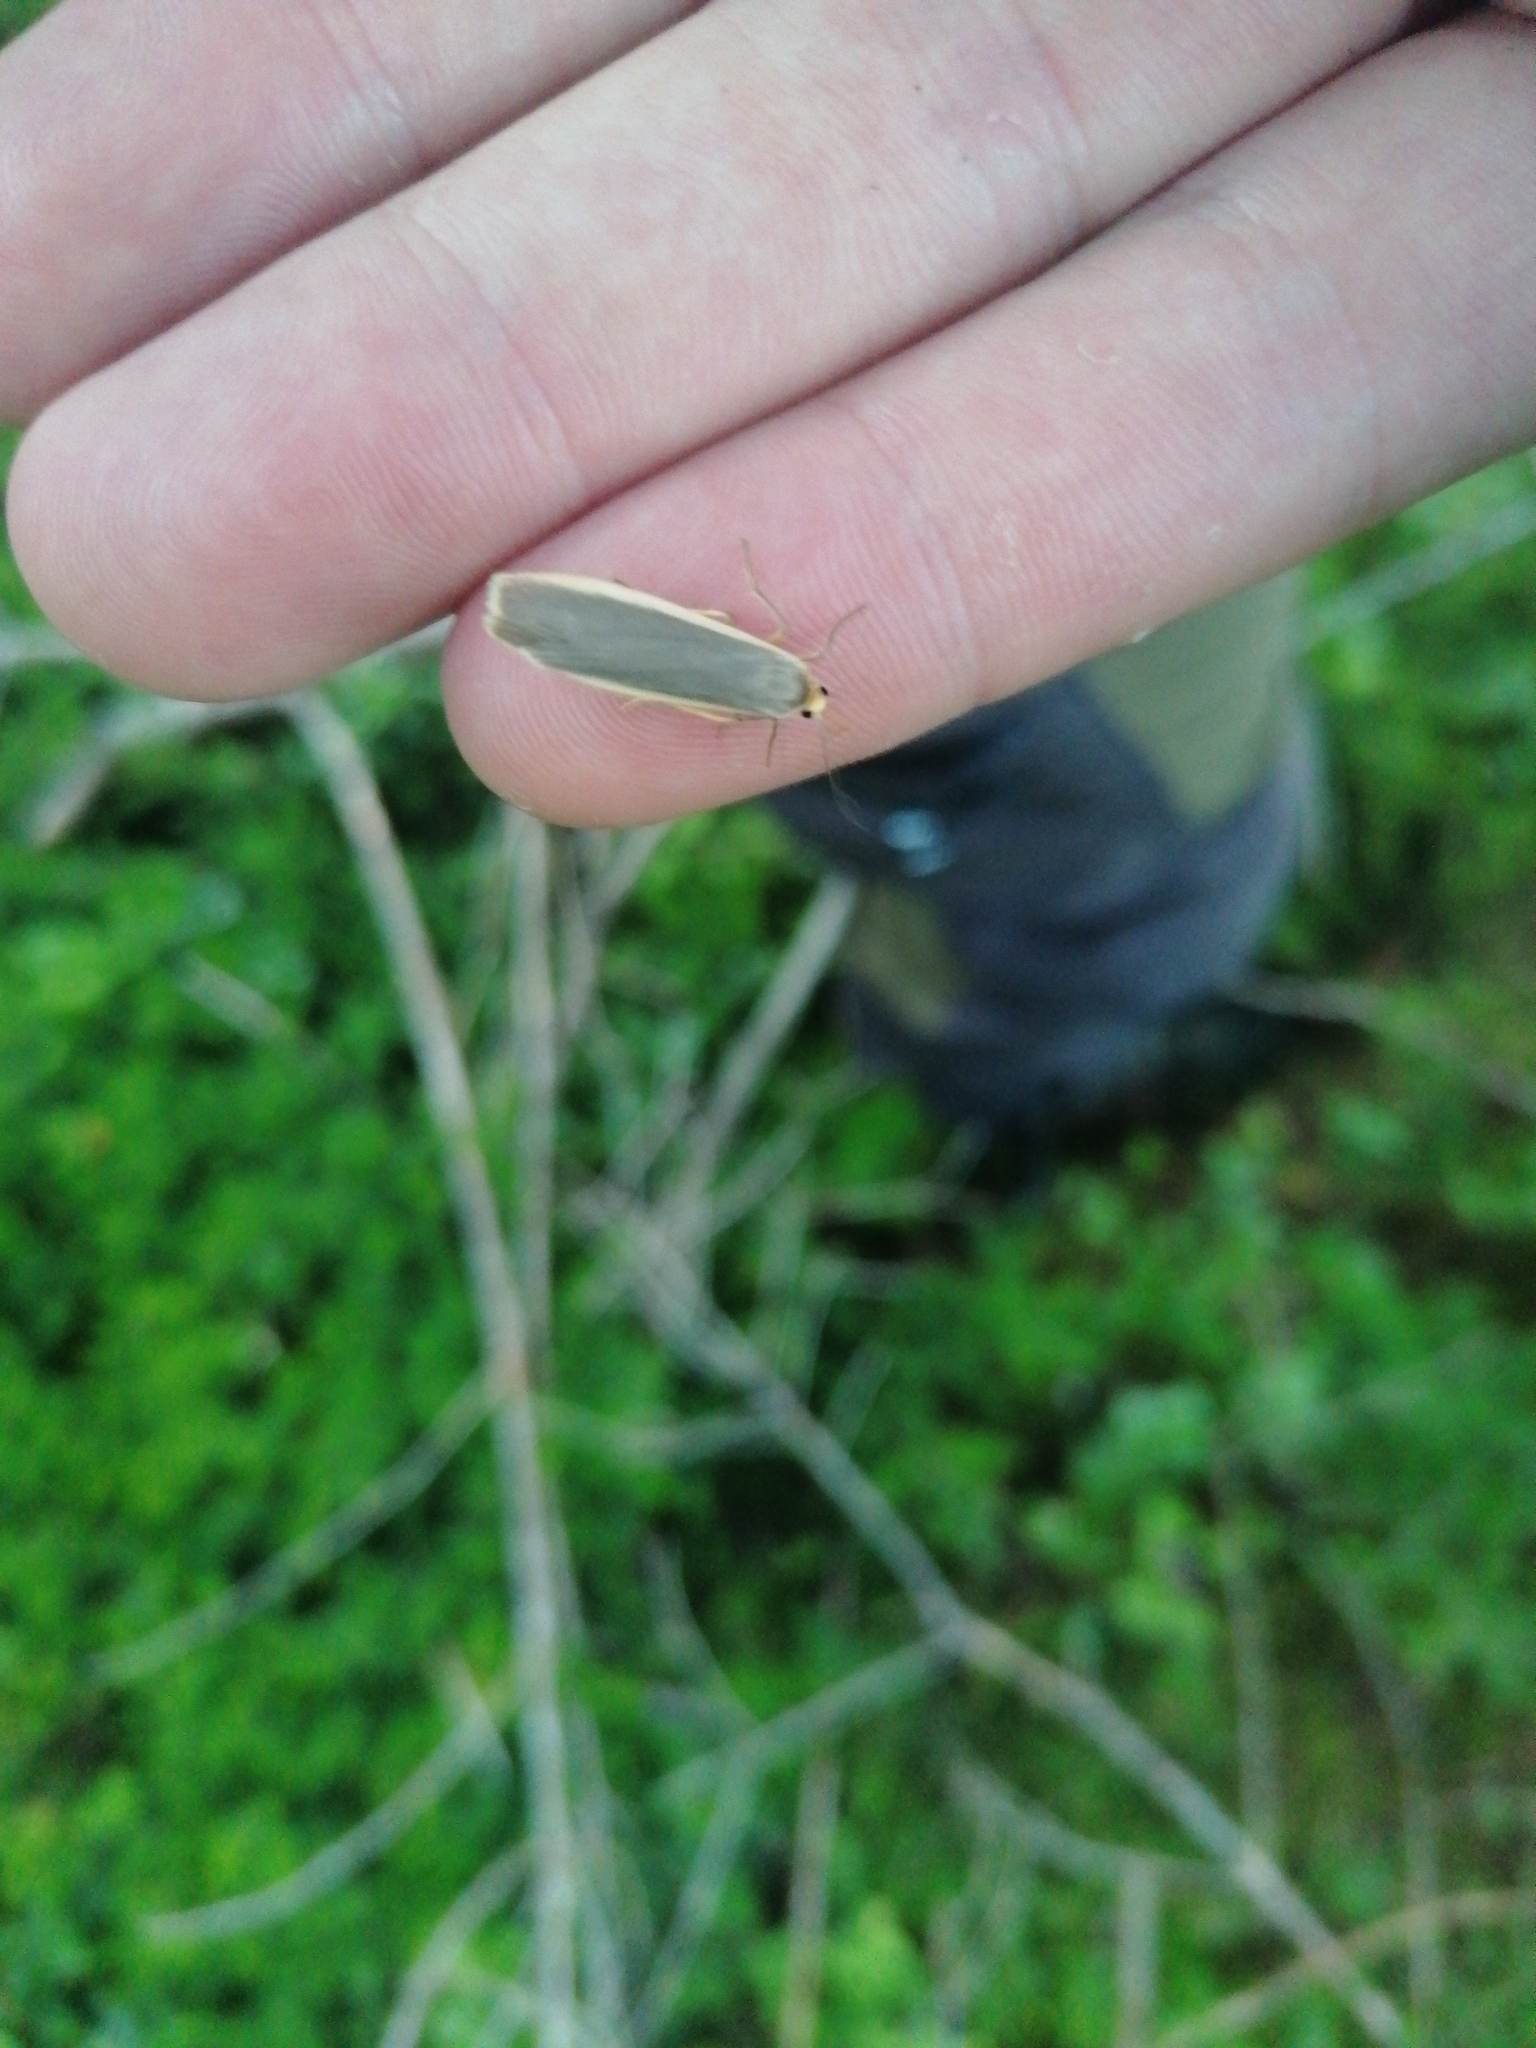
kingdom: Animalia
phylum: Arthropoda
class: Insecta
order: Lepidoptera
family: Erebidae
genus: Nyea
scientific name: Nyea lurideola
